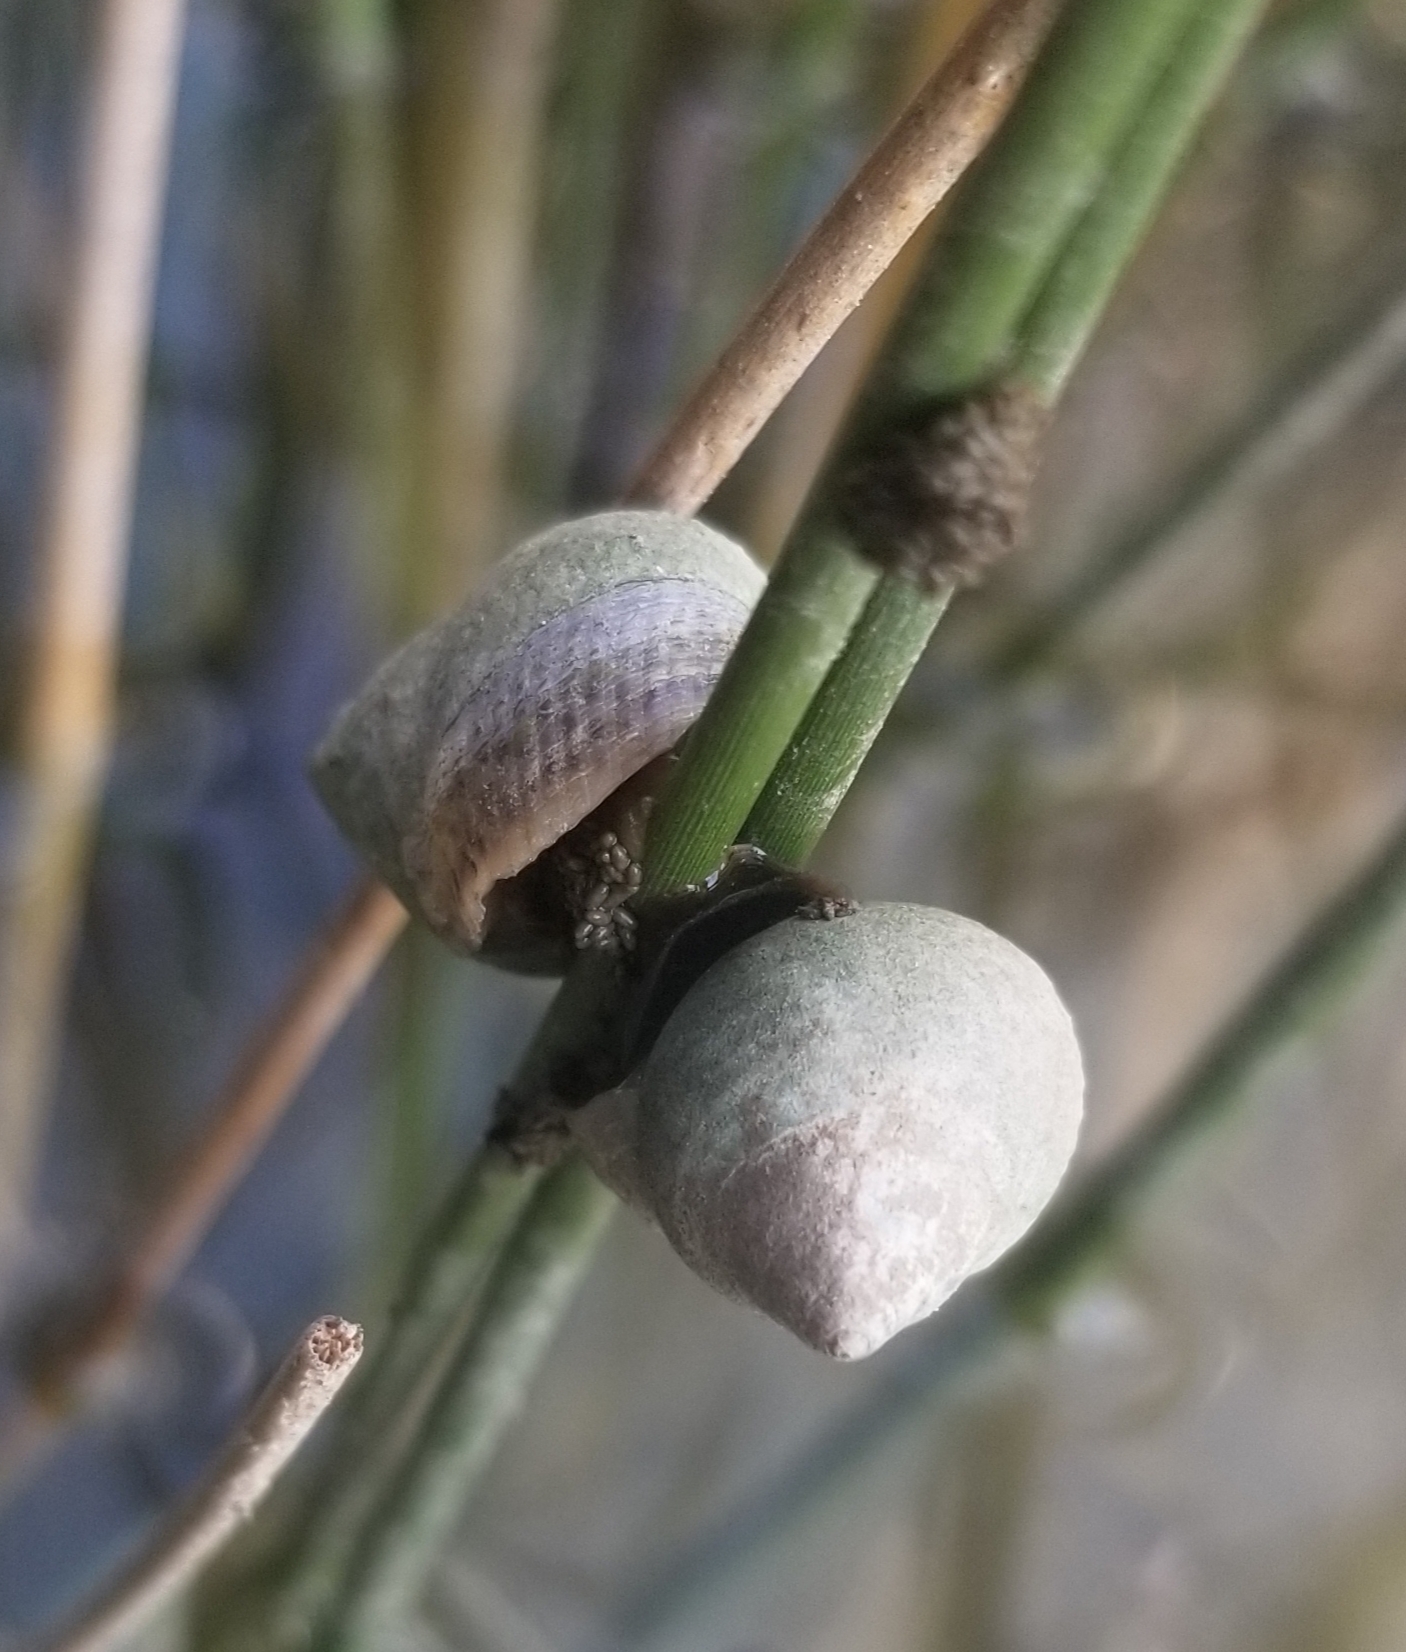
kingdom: Animalia
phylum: Mollusca
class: Gastropoda
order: Littorinimorpha
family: Littorinidae
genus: Littoraria
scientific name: Littoraria irrorata
